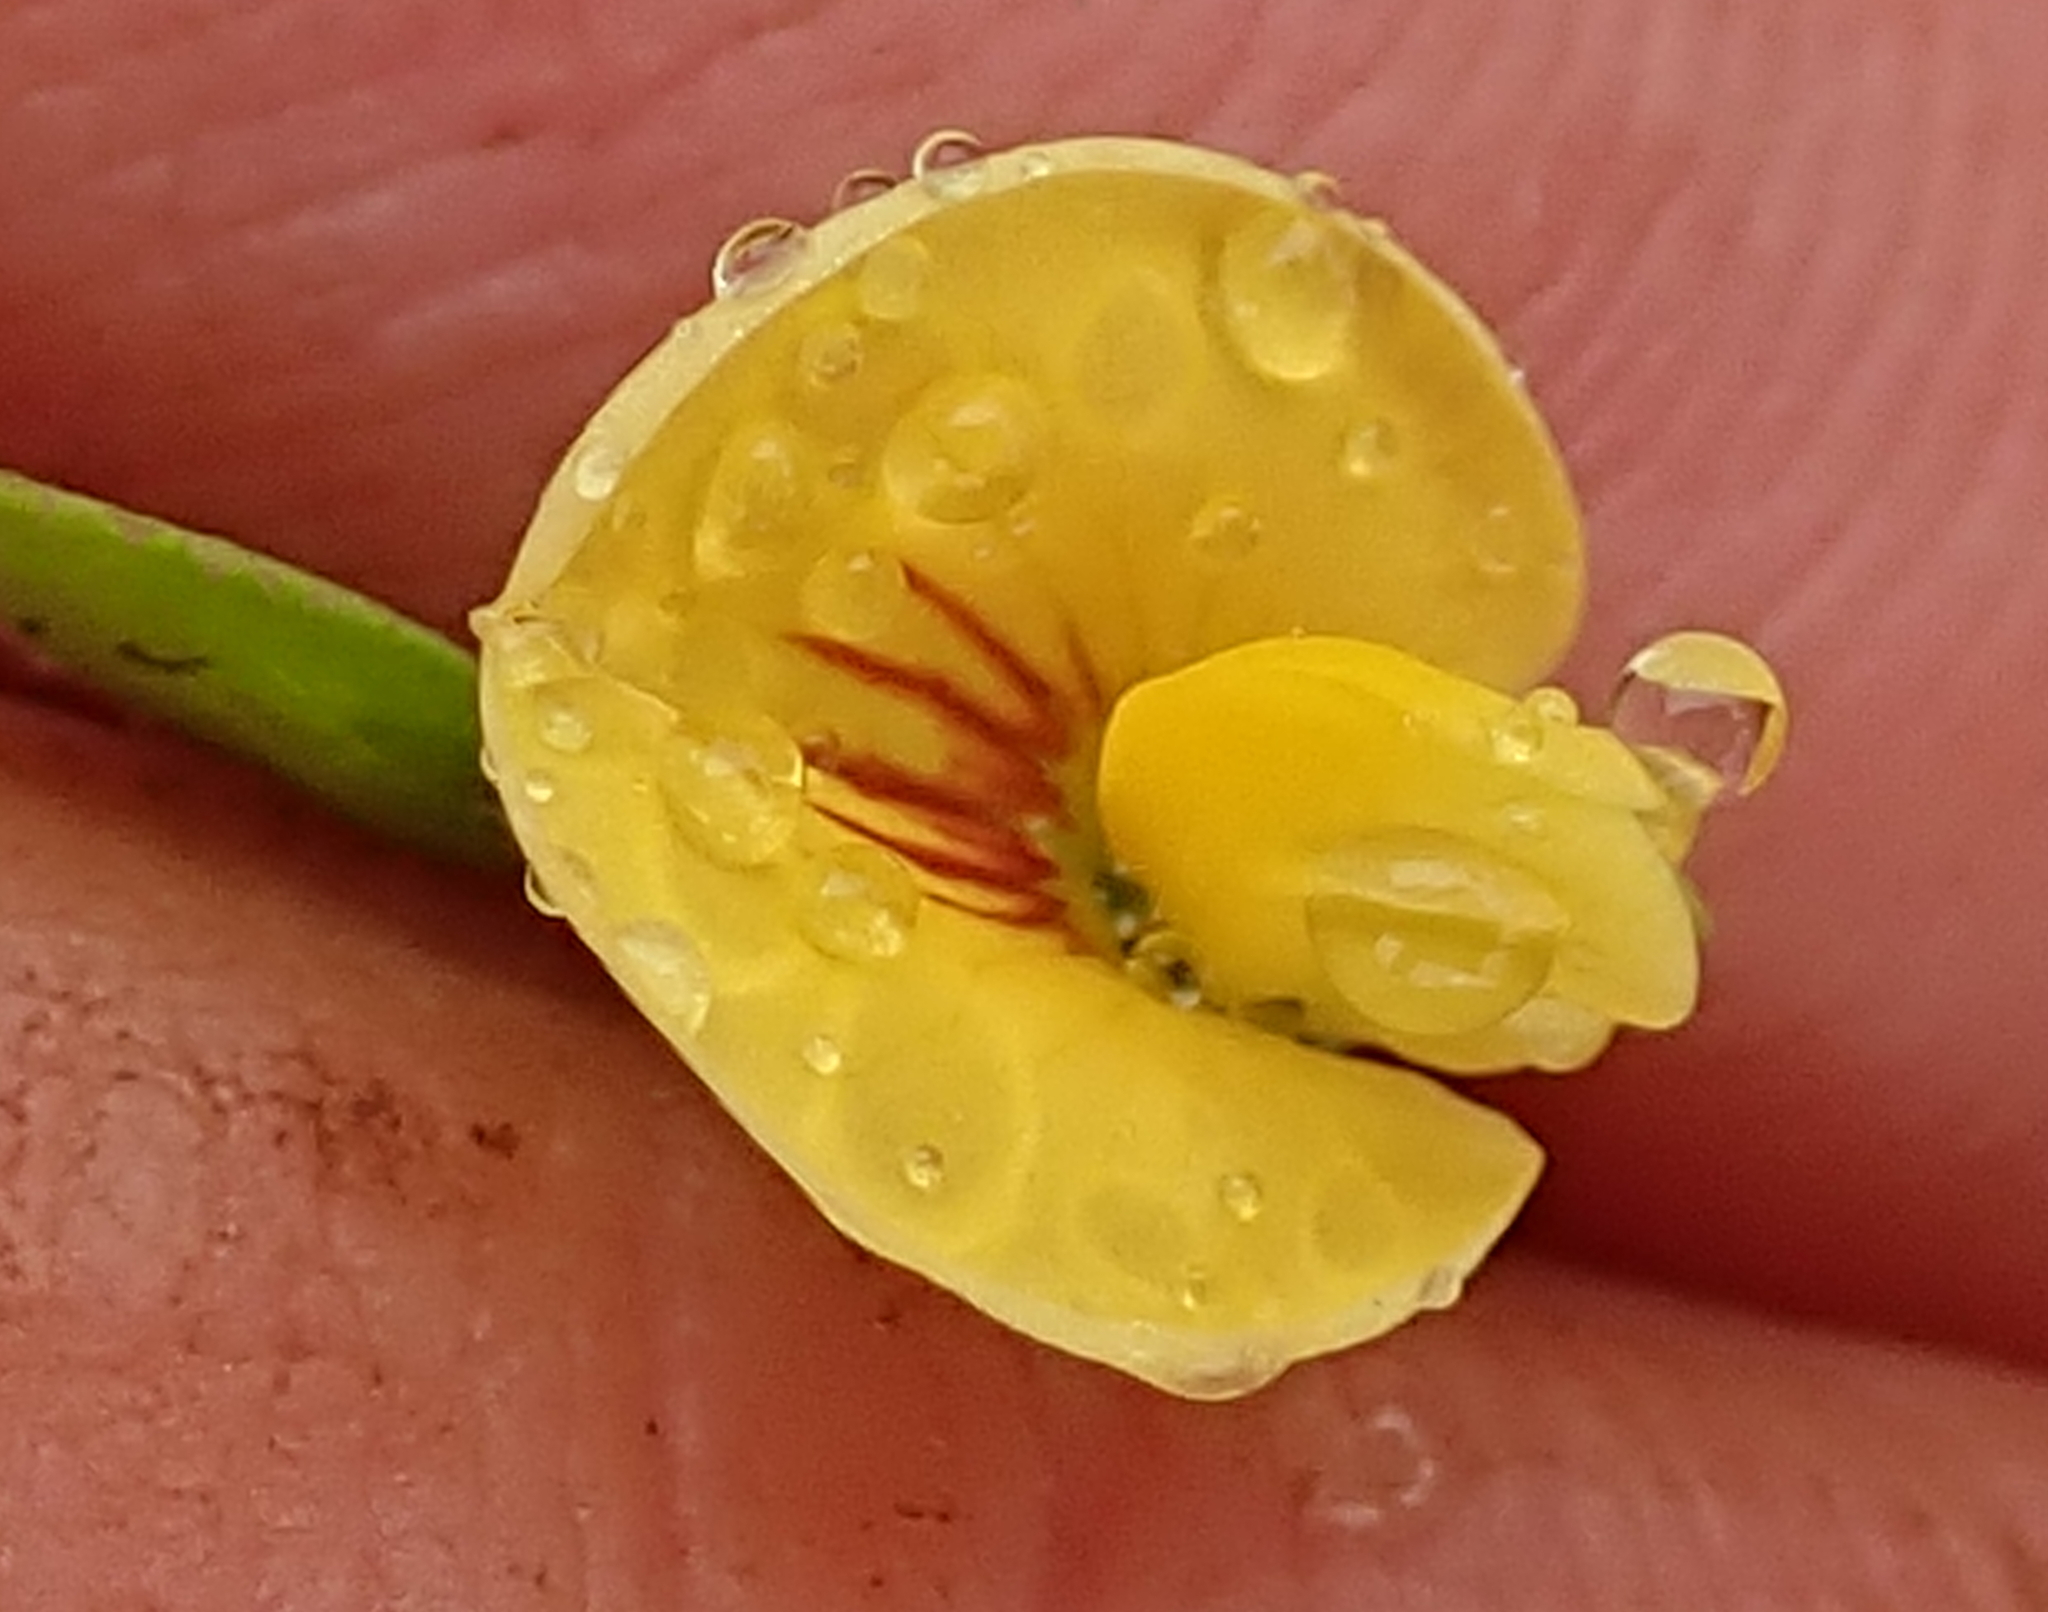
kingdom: Plantae
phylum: Tracheophyta
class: Magnoliopsida
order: Fabales
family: Fabaceae
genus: Zornia
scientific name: Zornia capensis
